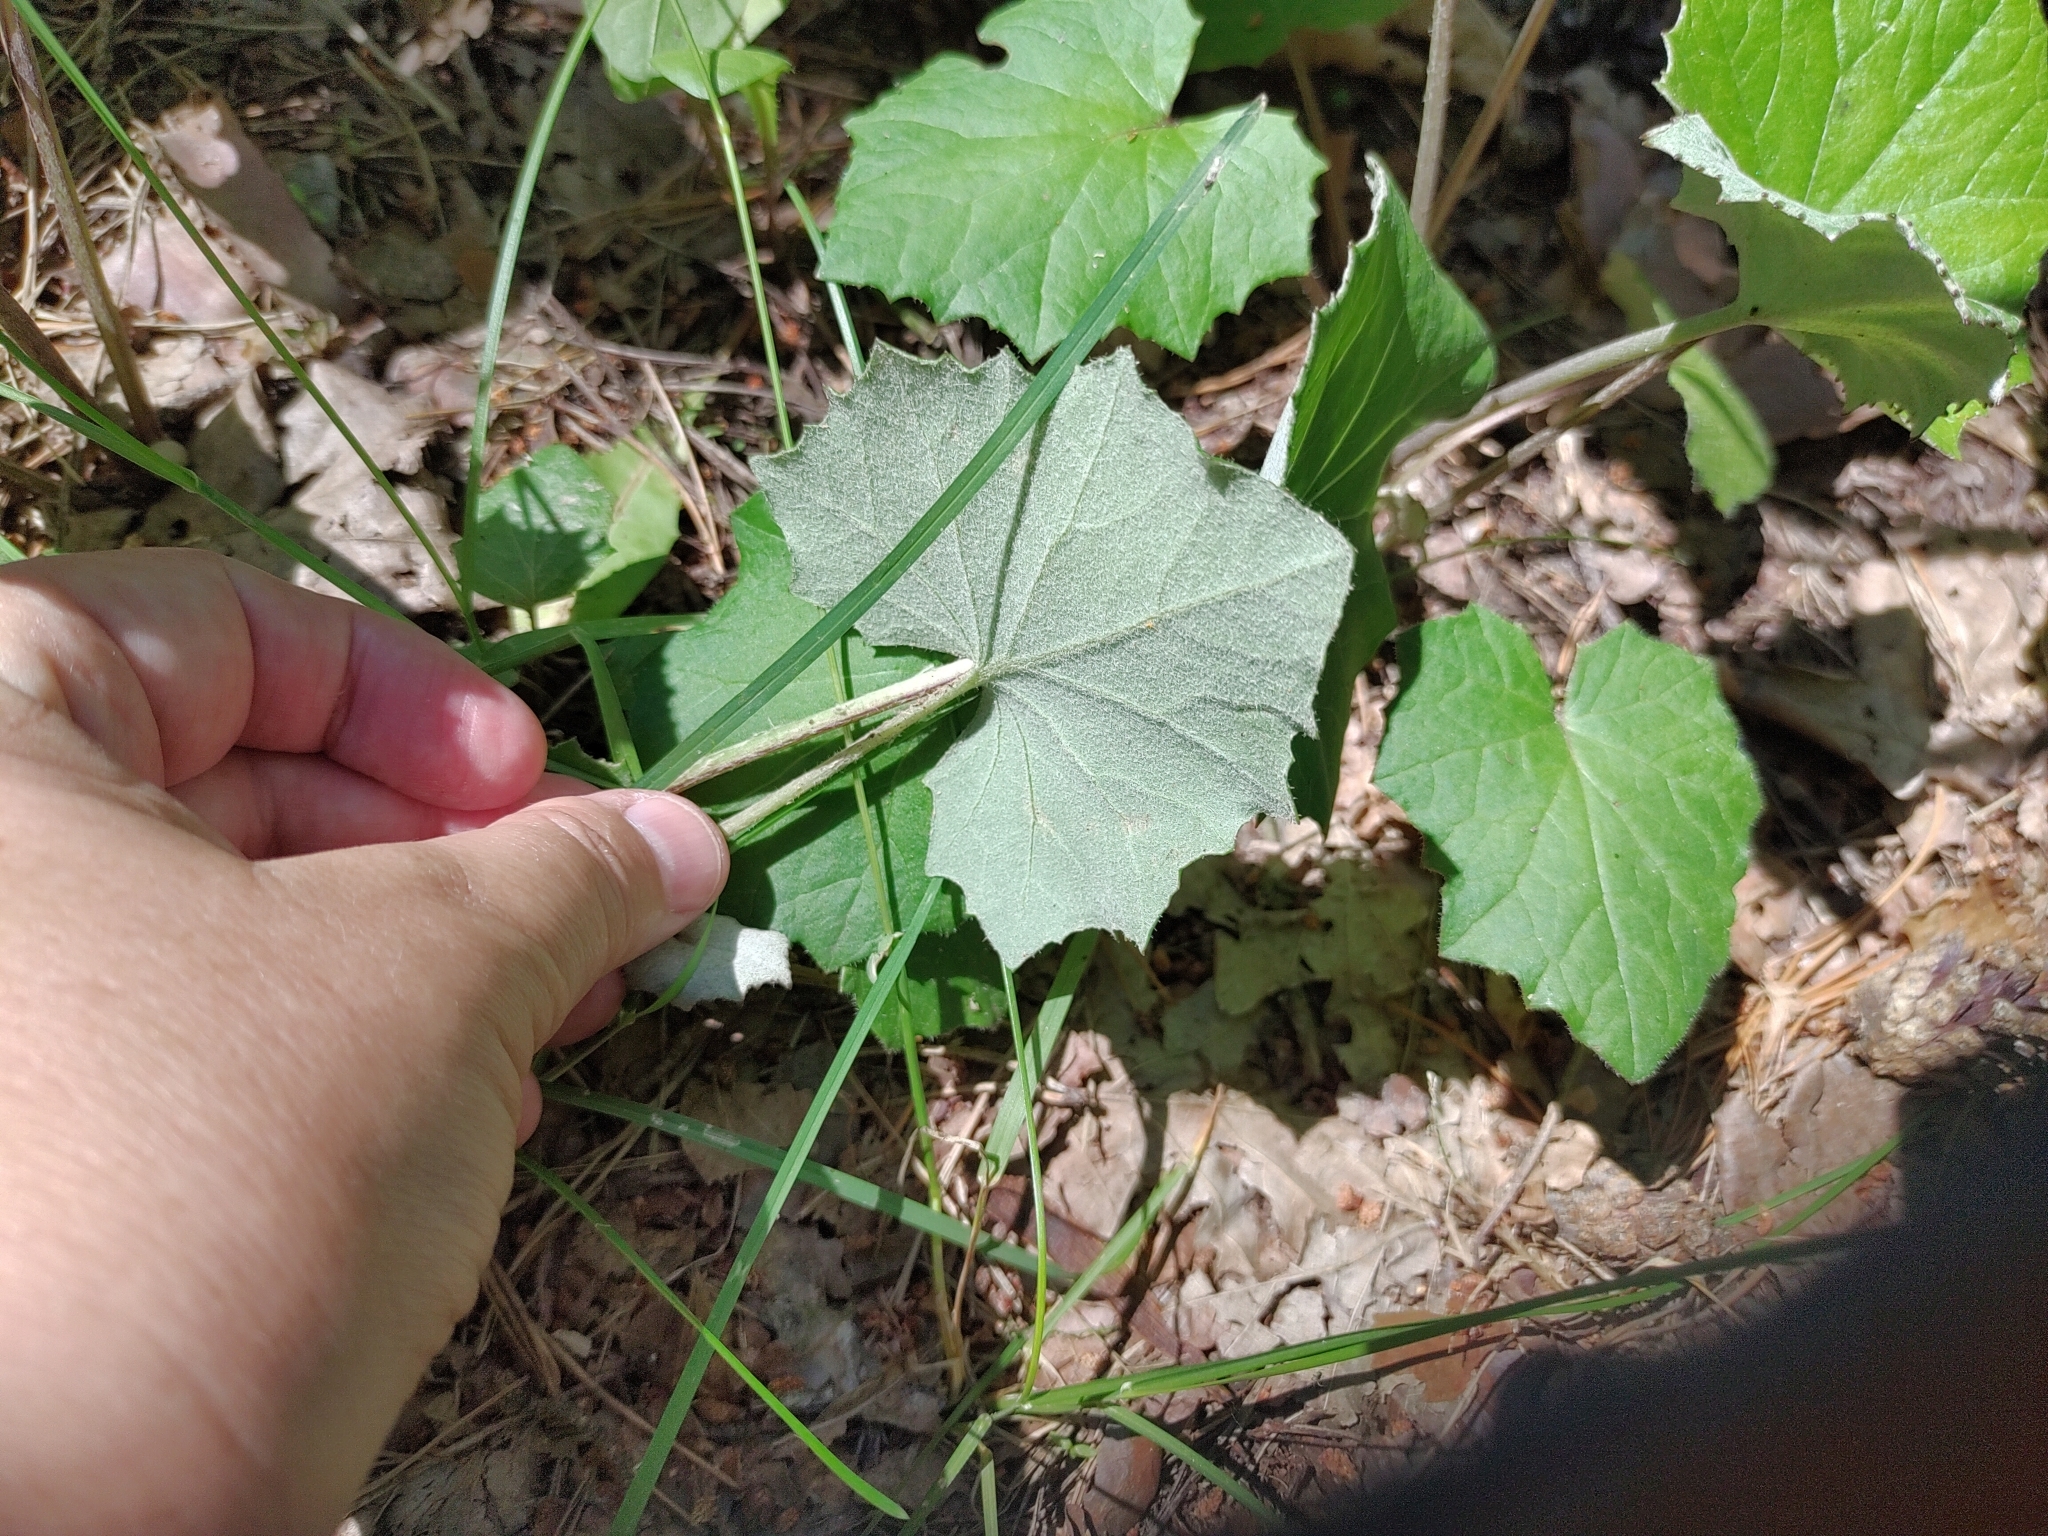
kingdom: Plantae
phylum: Tracheophyta
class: Magnoliopsida
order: Asterales
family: Asteraceae
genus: Tussilago
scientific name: Tussilago farfara
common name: Coltsfoot
